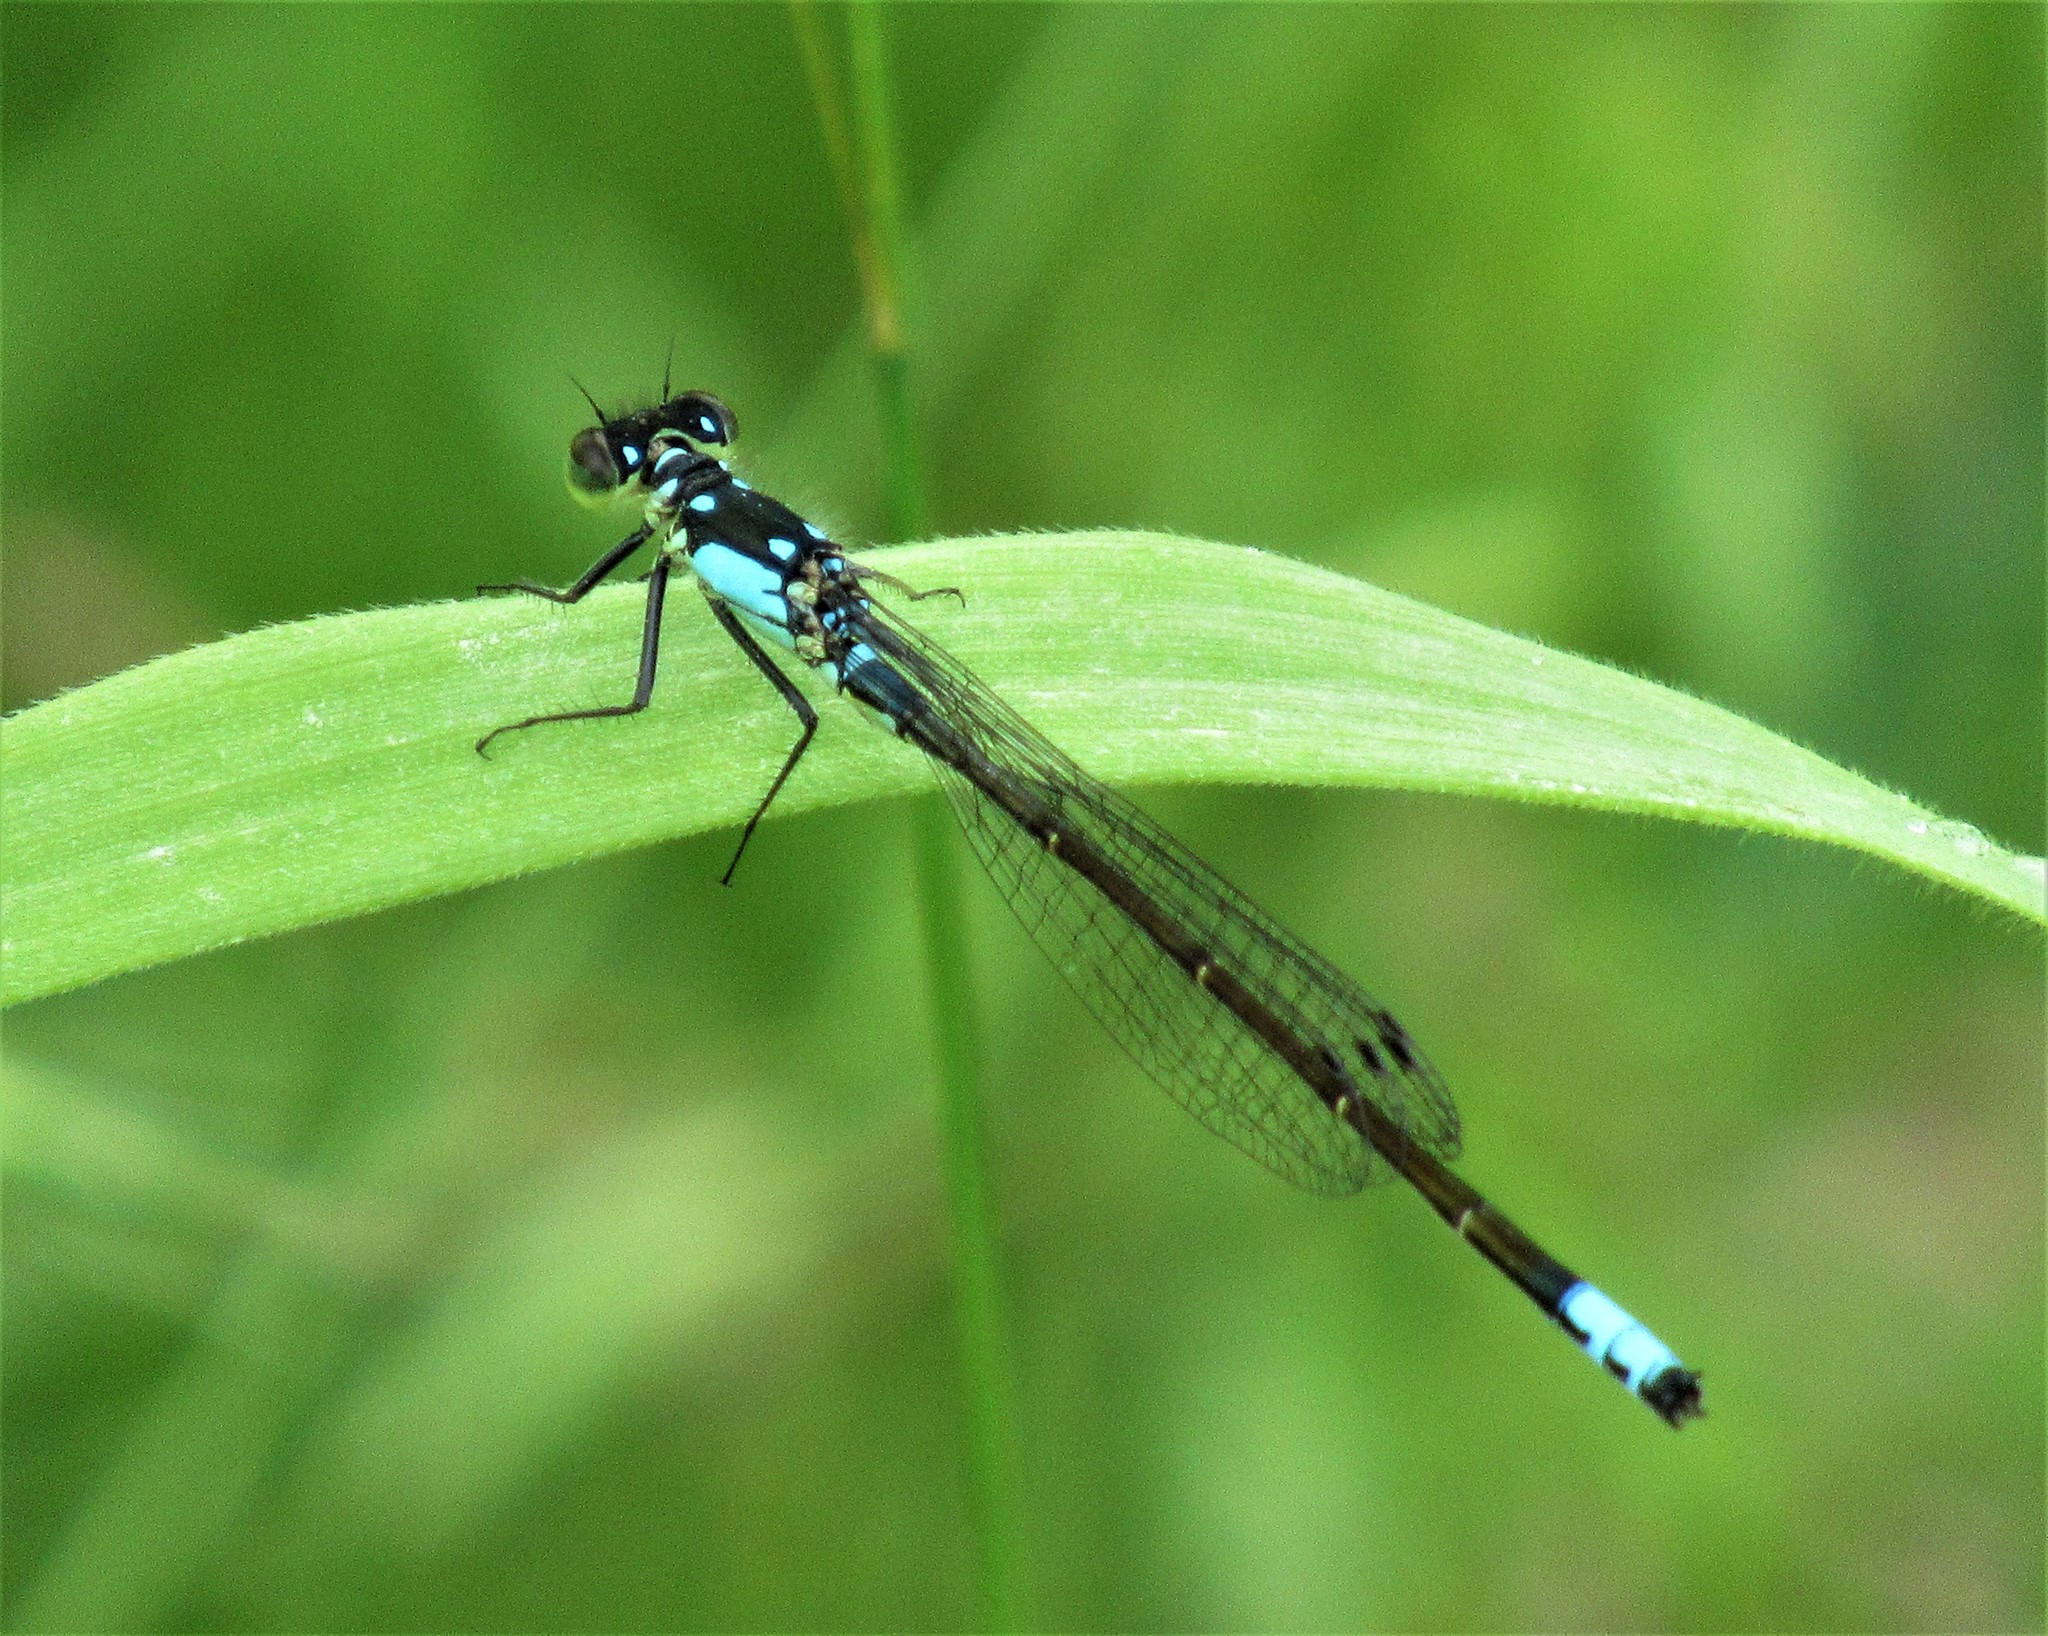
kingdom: Animalia
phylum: Arthropoda
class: Insecta
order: Odonata
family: Coenagrionidae
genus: Ischnura
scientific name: Ischnura cervula
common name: Pacific forktail
